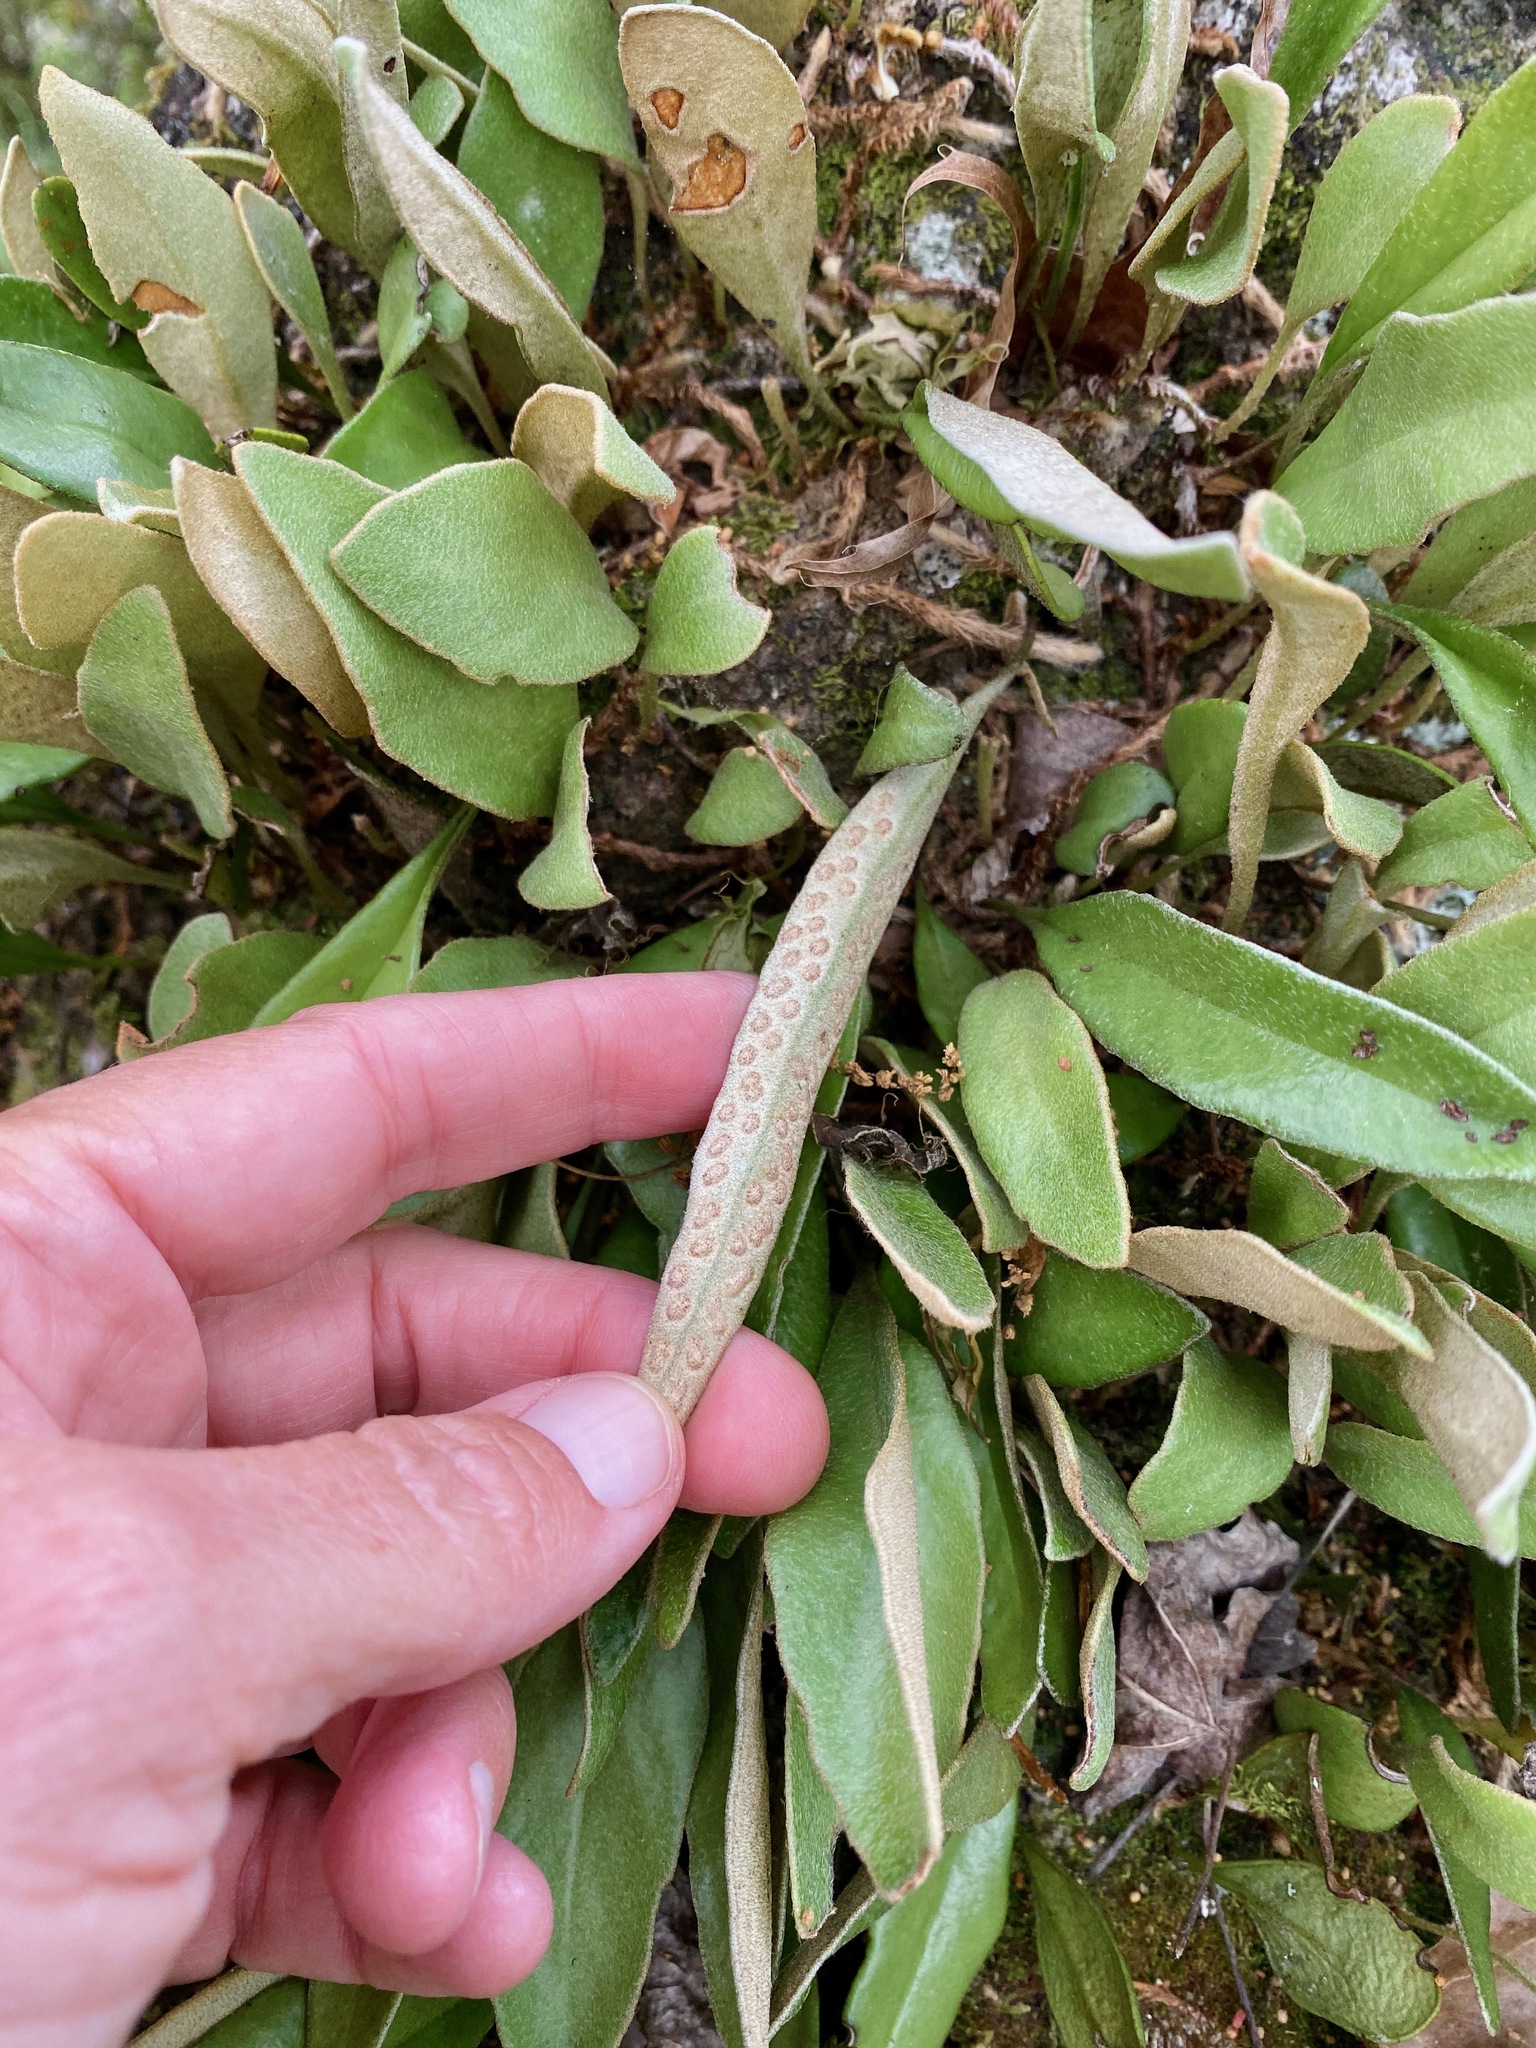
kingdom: Plantae
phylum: Tracheophyta
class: Polypodiopsida
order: Polypodiales
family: Polypodiaceae
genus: Pyrrosia
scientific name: Pyrrosia eleagnifolia
